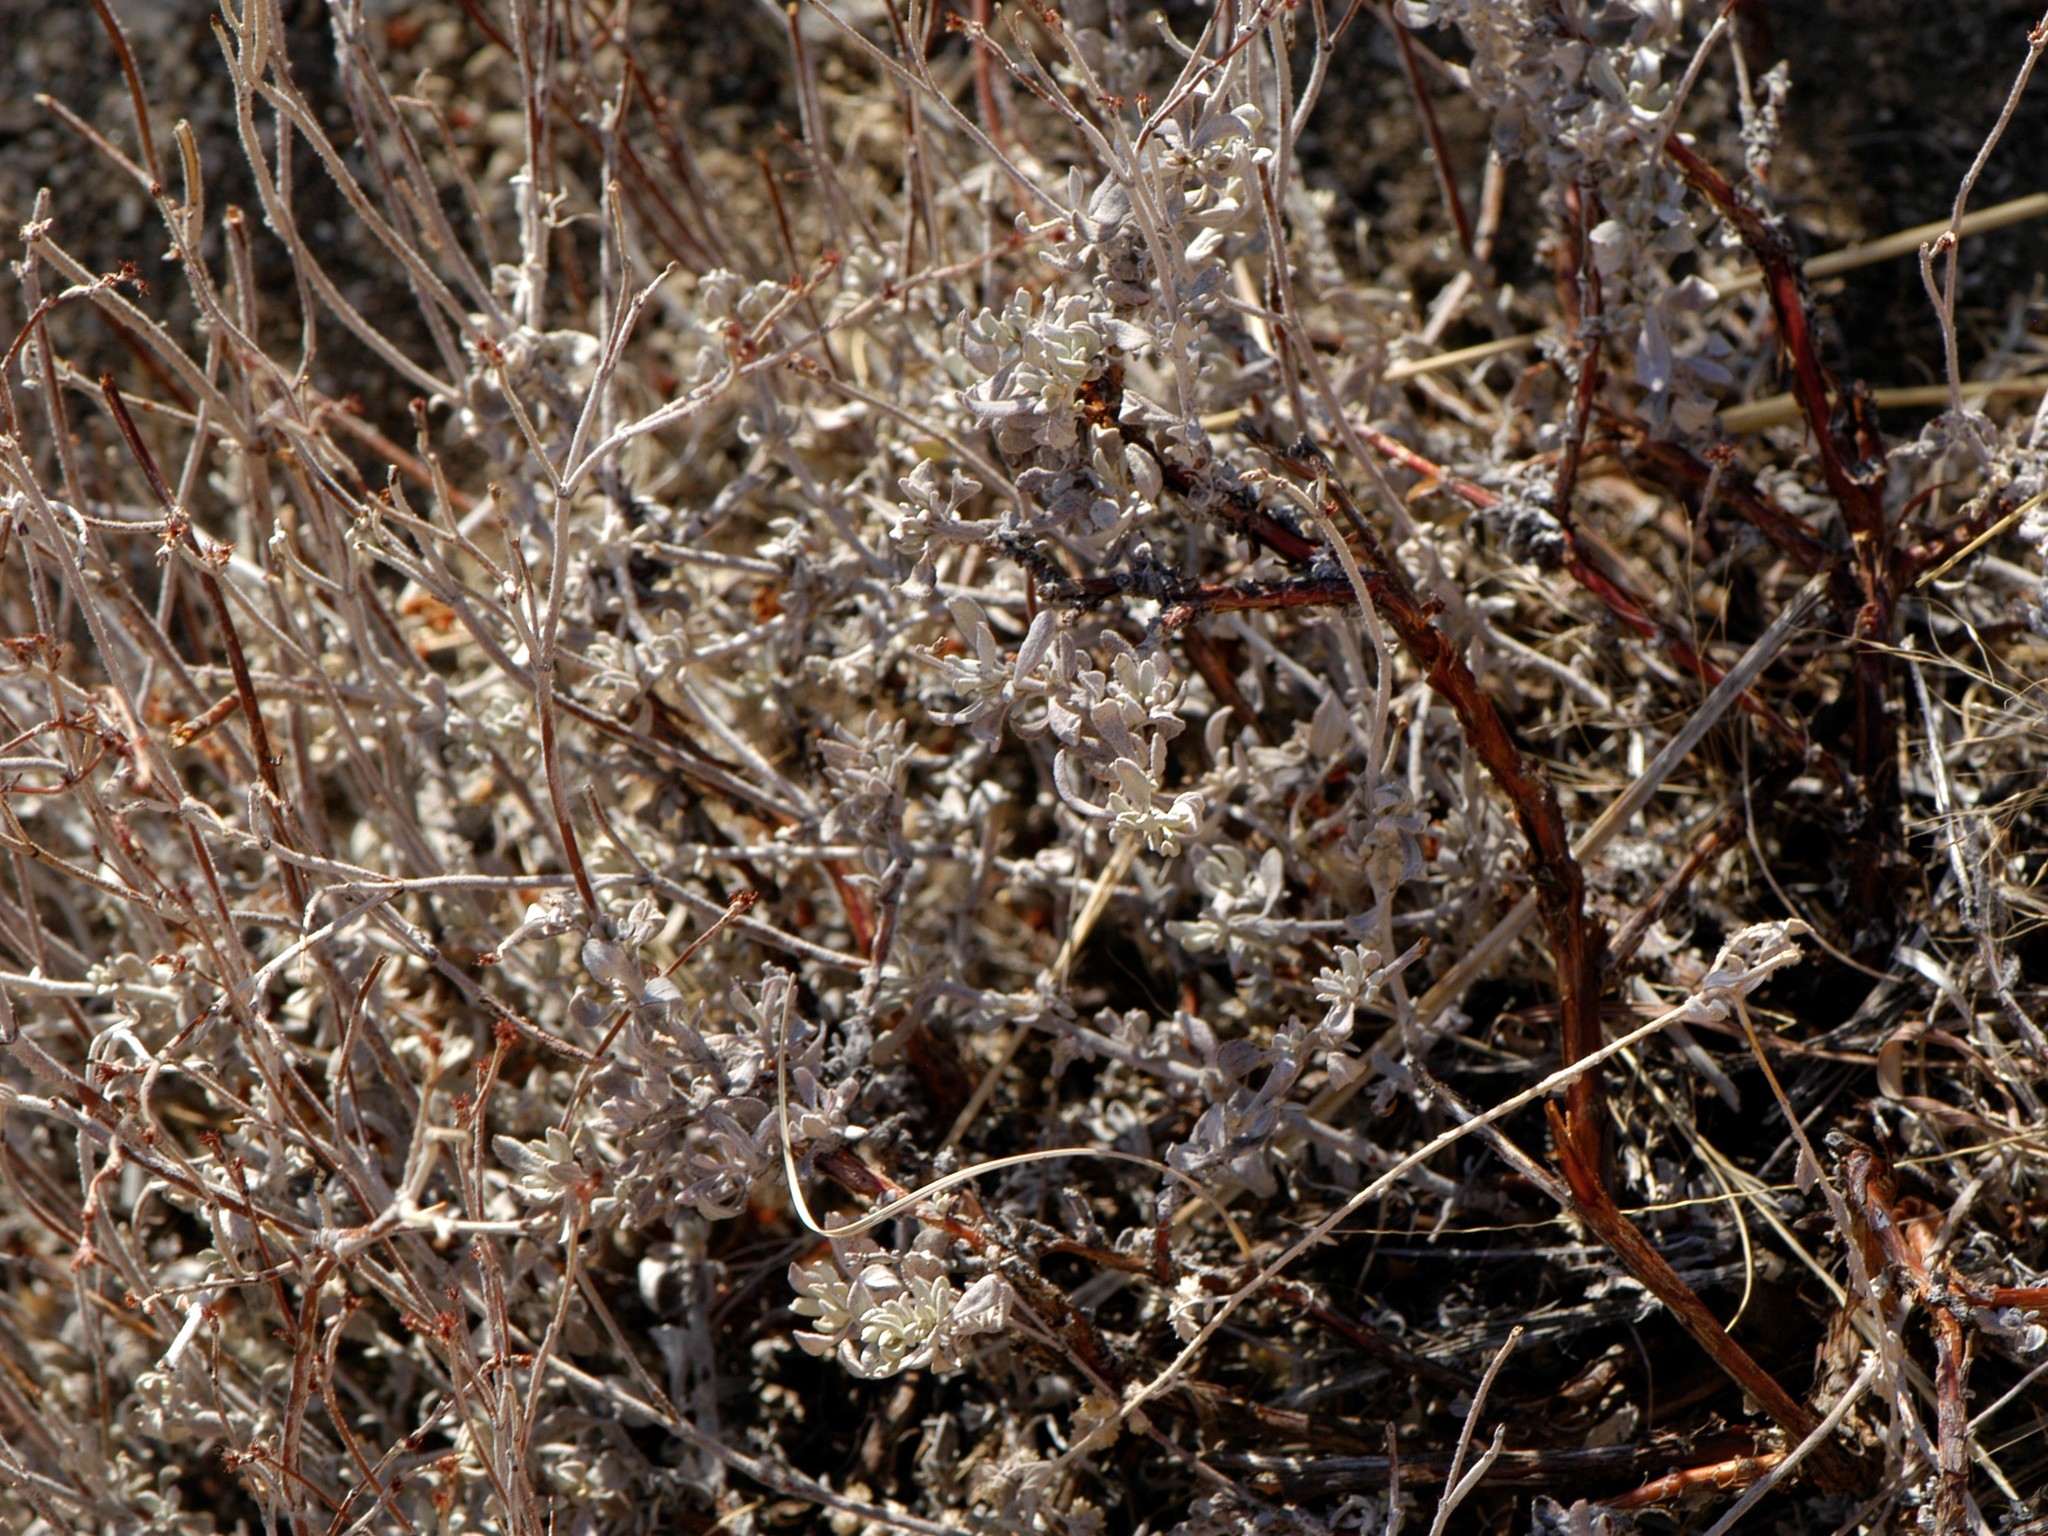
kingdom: Plantae
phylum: Tracheophyta
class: Magnoliopsida
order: Caryophyllales
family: Polygonaceae
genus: Eriogonum
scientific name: Eriogonum wrightii
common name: Bastard-sage
